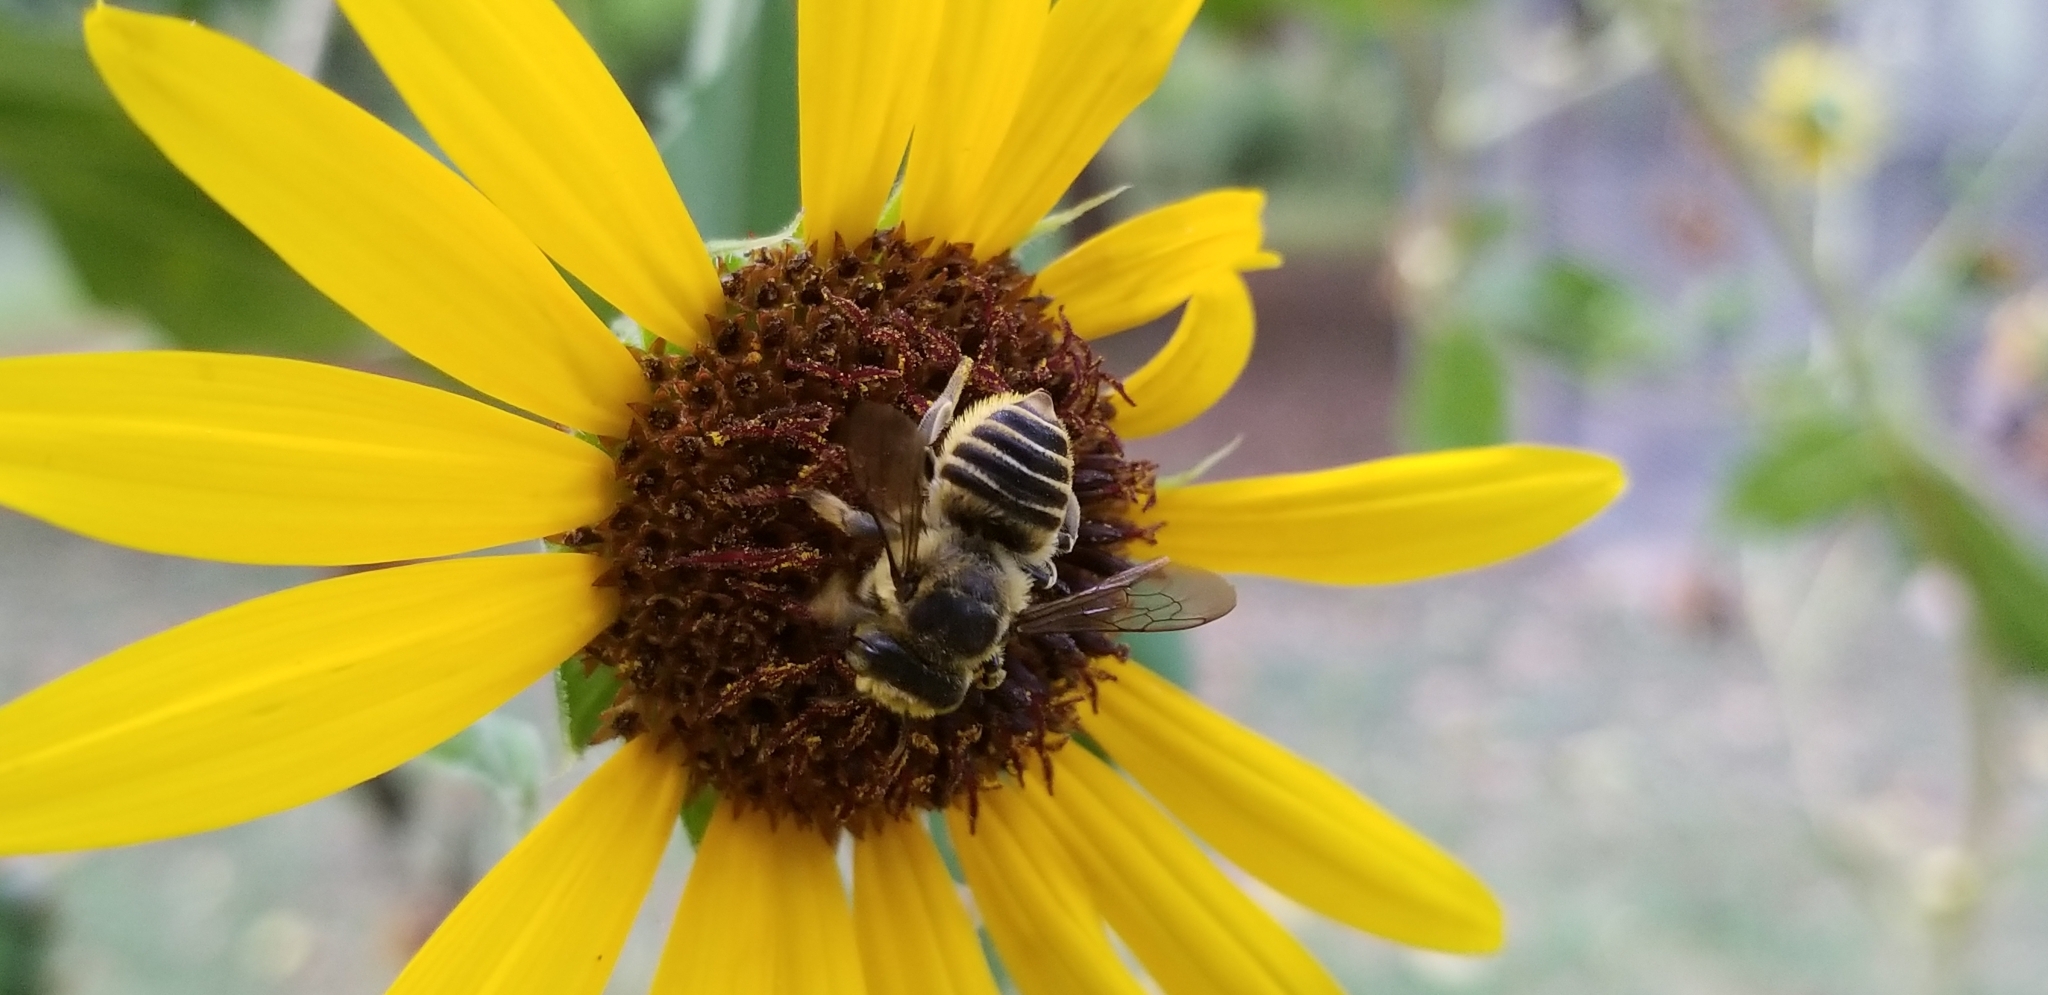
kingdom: Animalia
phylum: Arthropoda
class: Insecta
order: Hymenoptera
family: Megachilidae
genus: Megachile
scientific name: Megachile parallela
